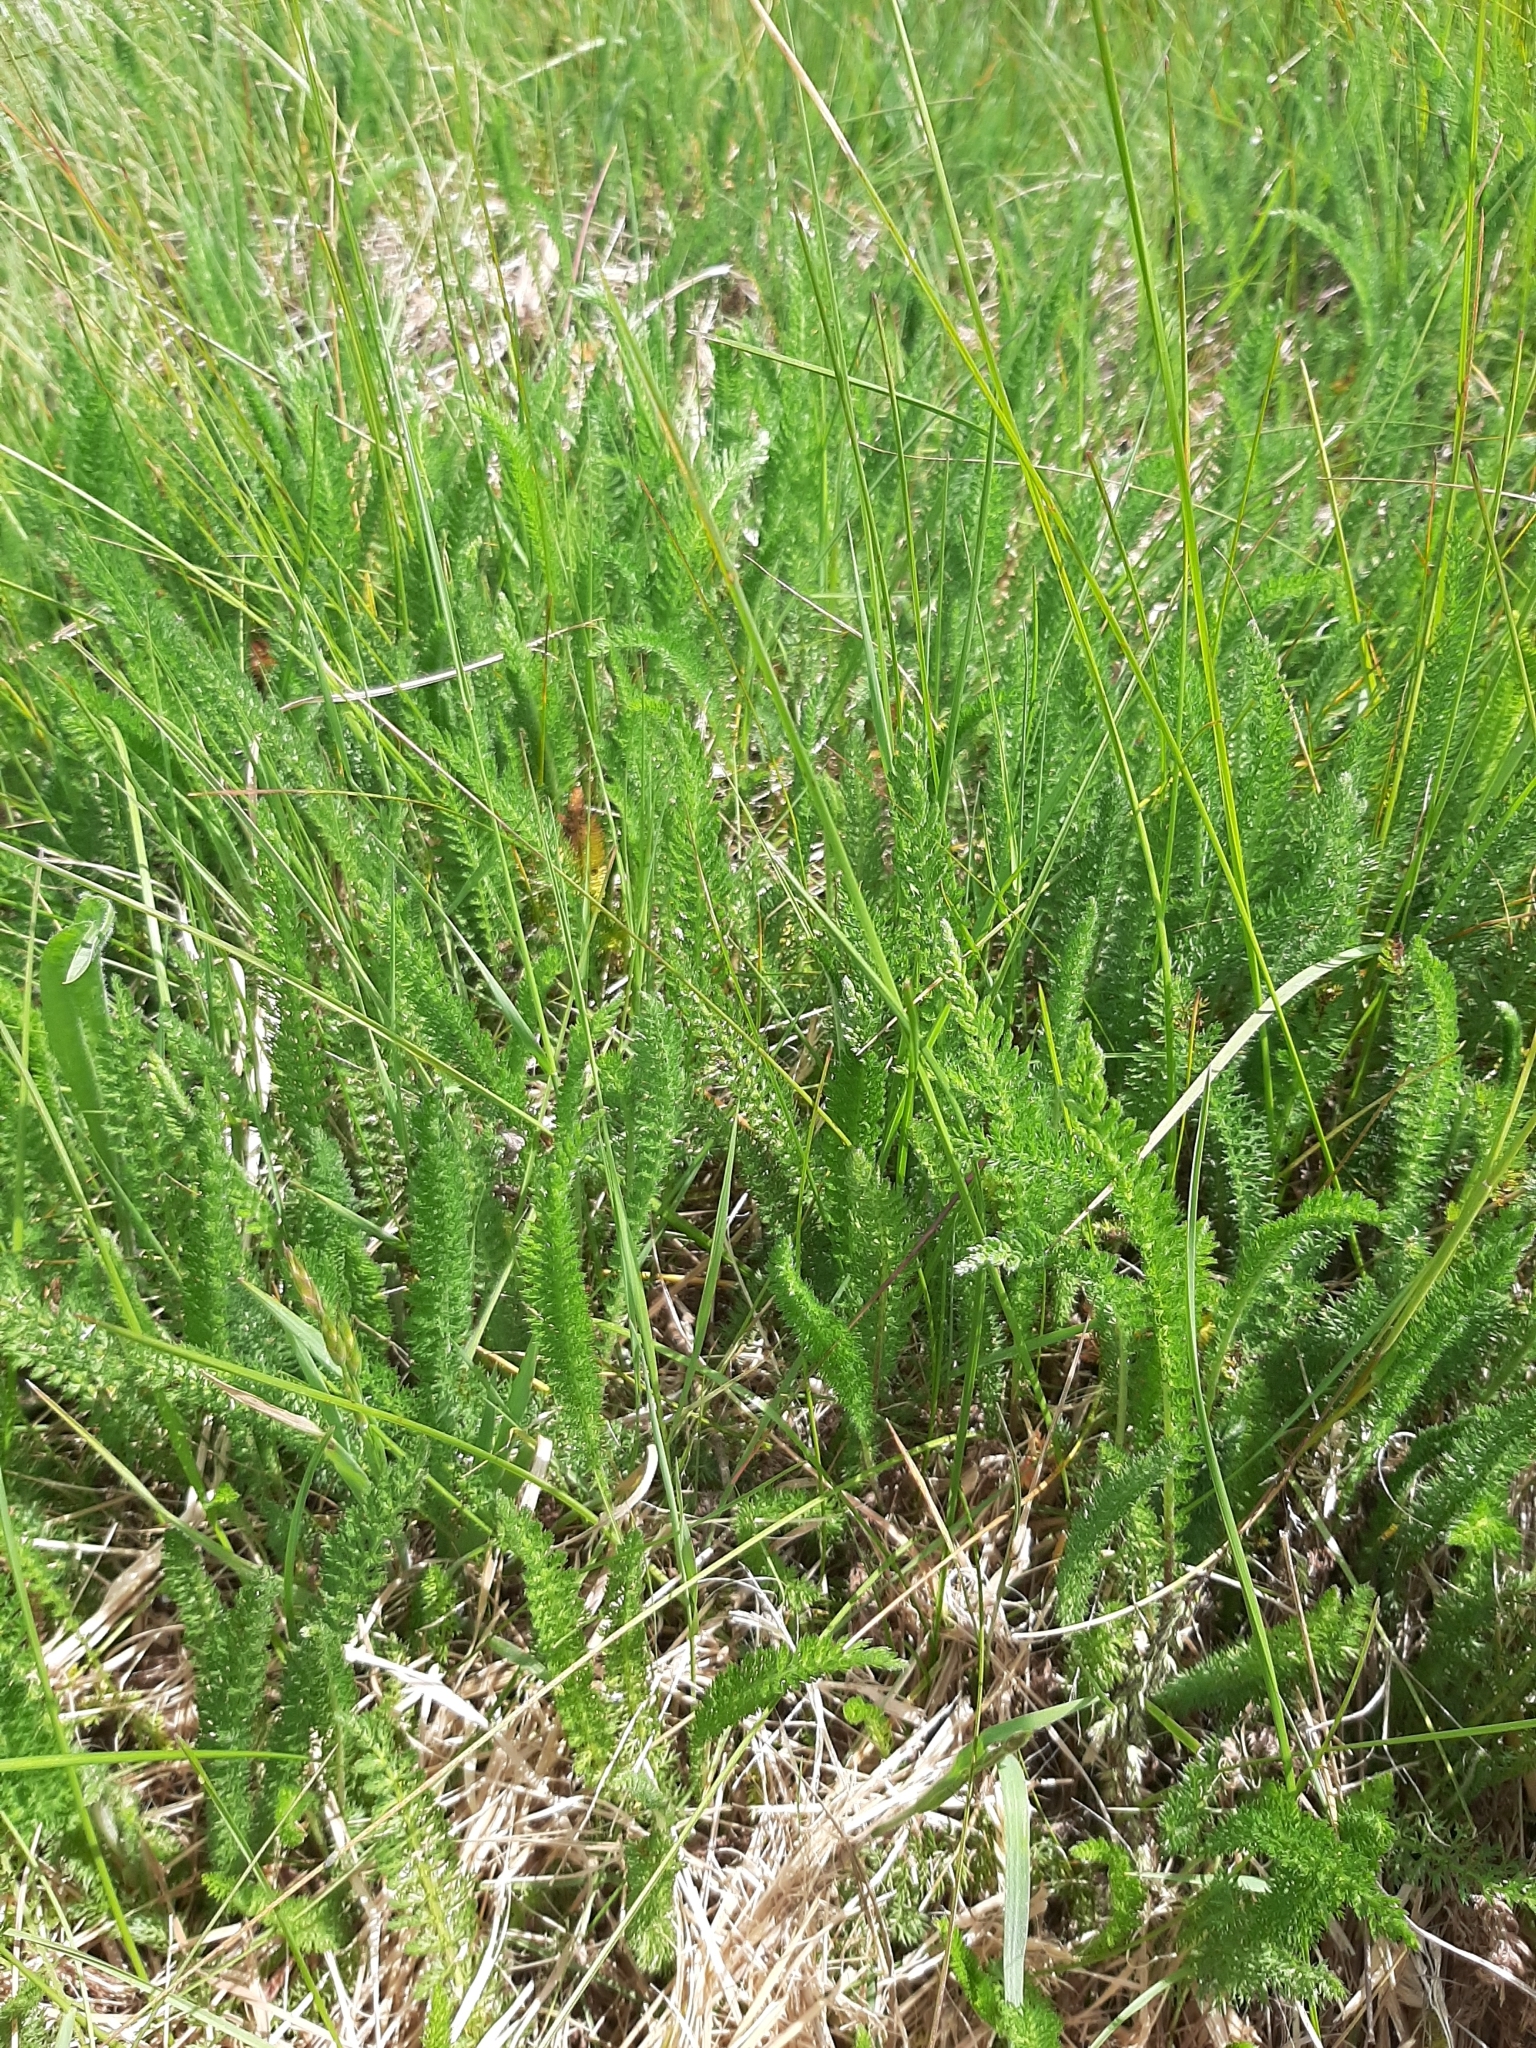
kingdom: Plantae
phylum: Tracheophyta
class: Magnoliopsida
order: Asterales
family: Asteraceae
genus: Achillea
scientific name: Achillea millefolium
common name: Yarrow
